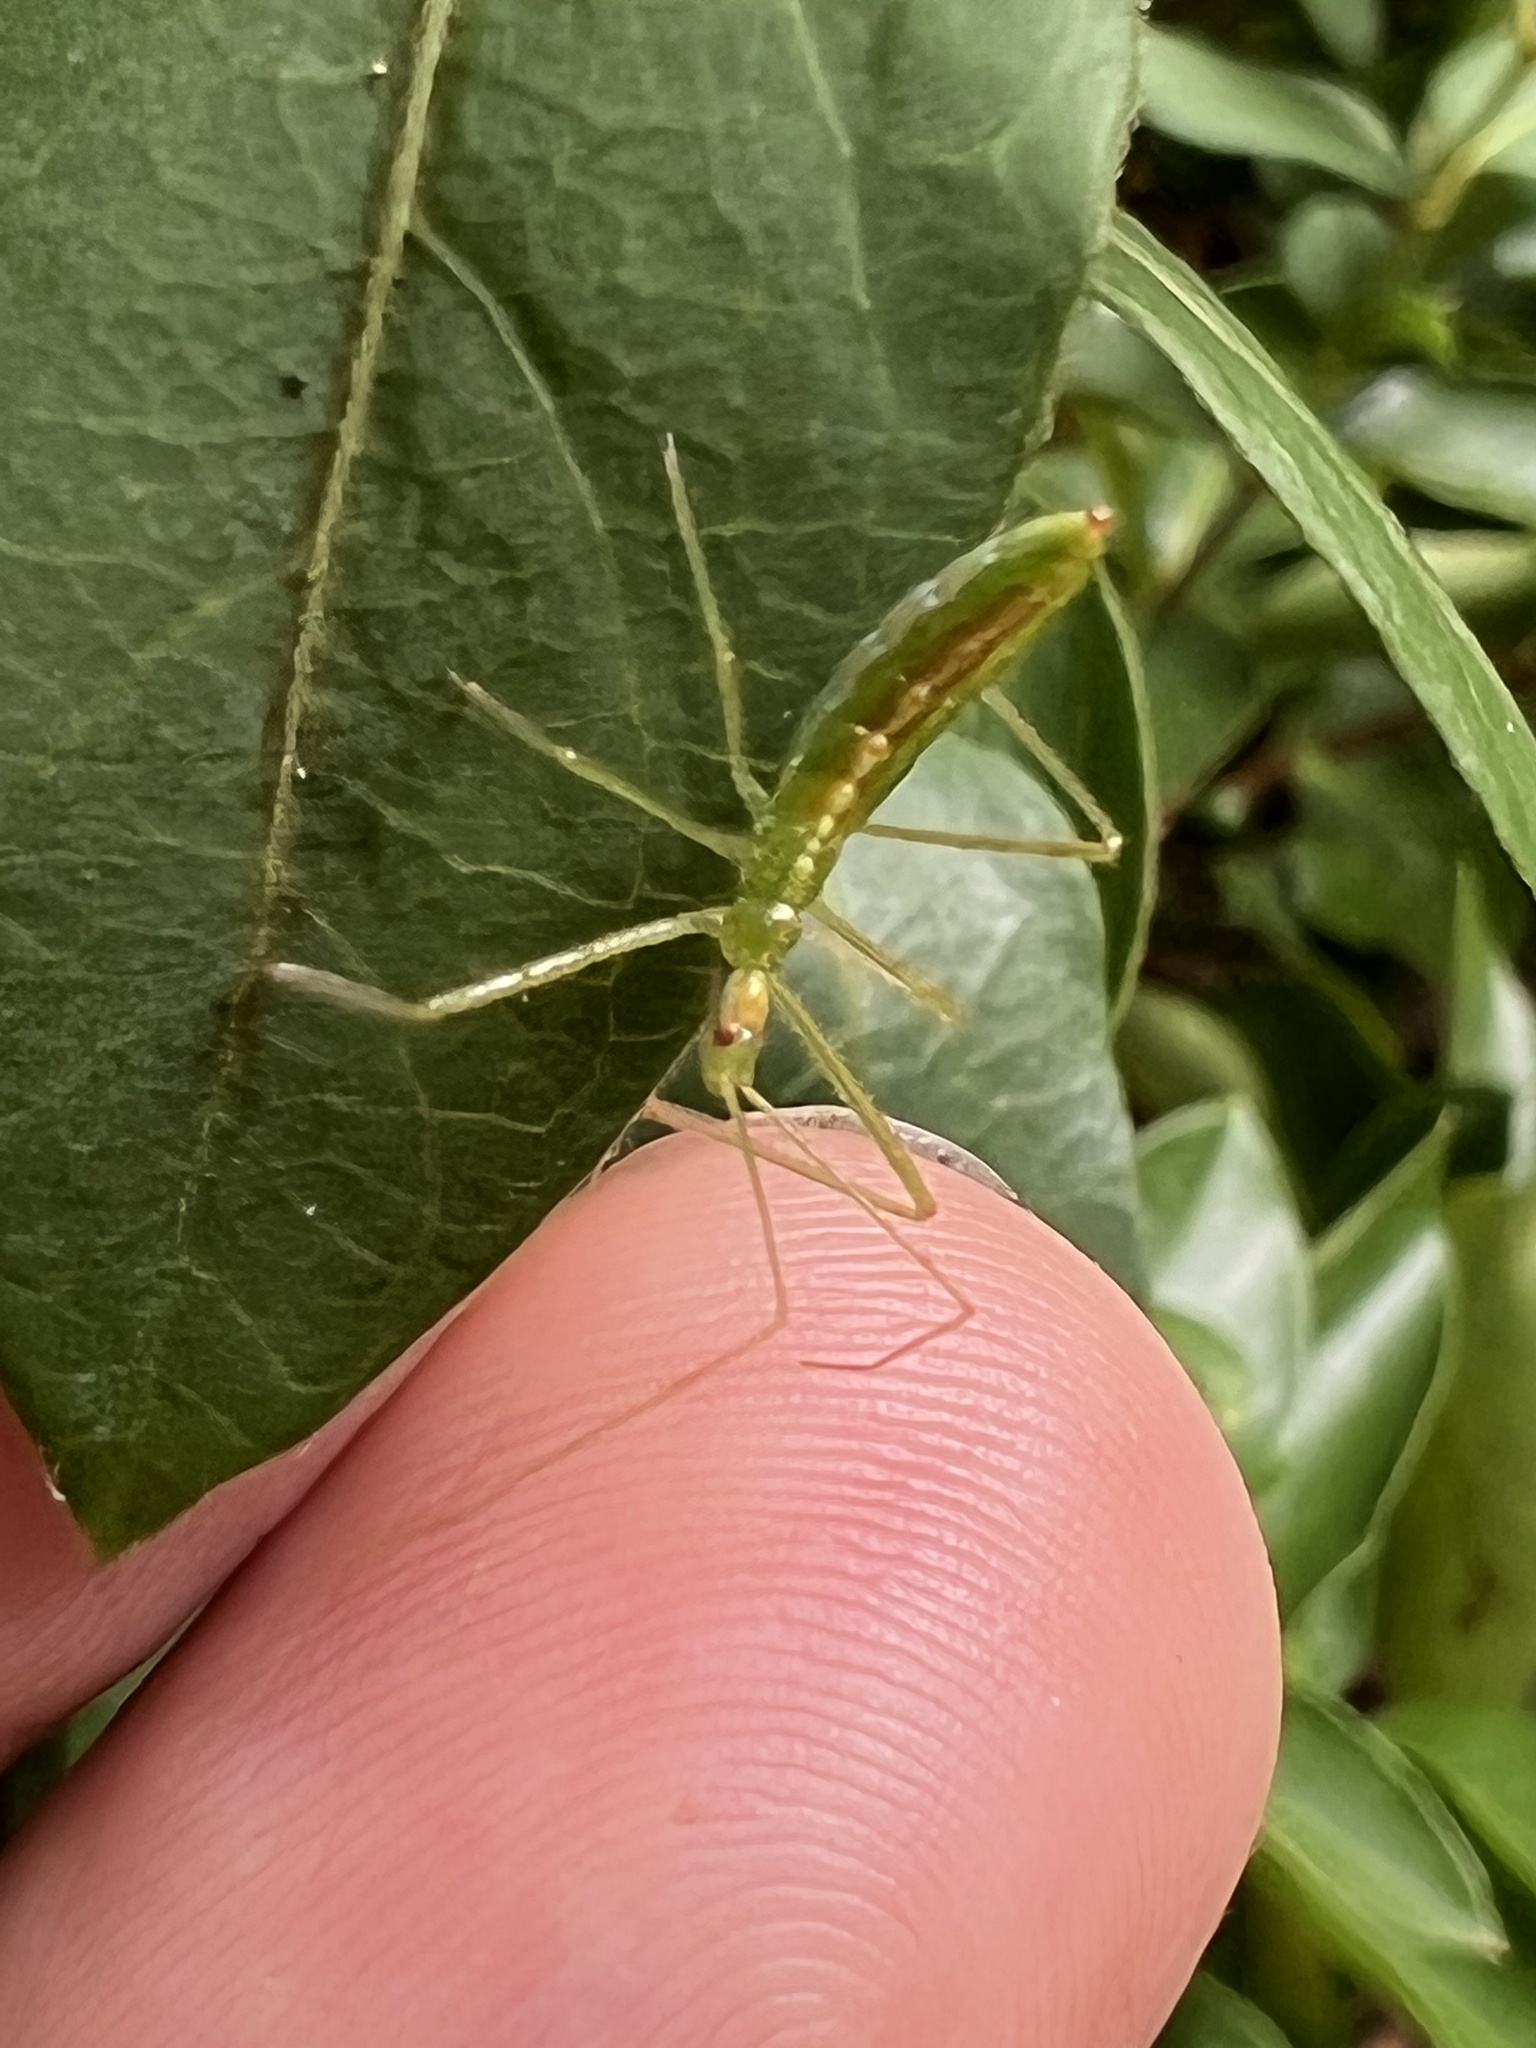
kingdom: Animalia
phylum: Arthropoda
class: Insecta
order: Hemiptera
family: Reduviidae
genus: Zelus
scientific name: Zelus luridus
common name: Pale green assassin bug
